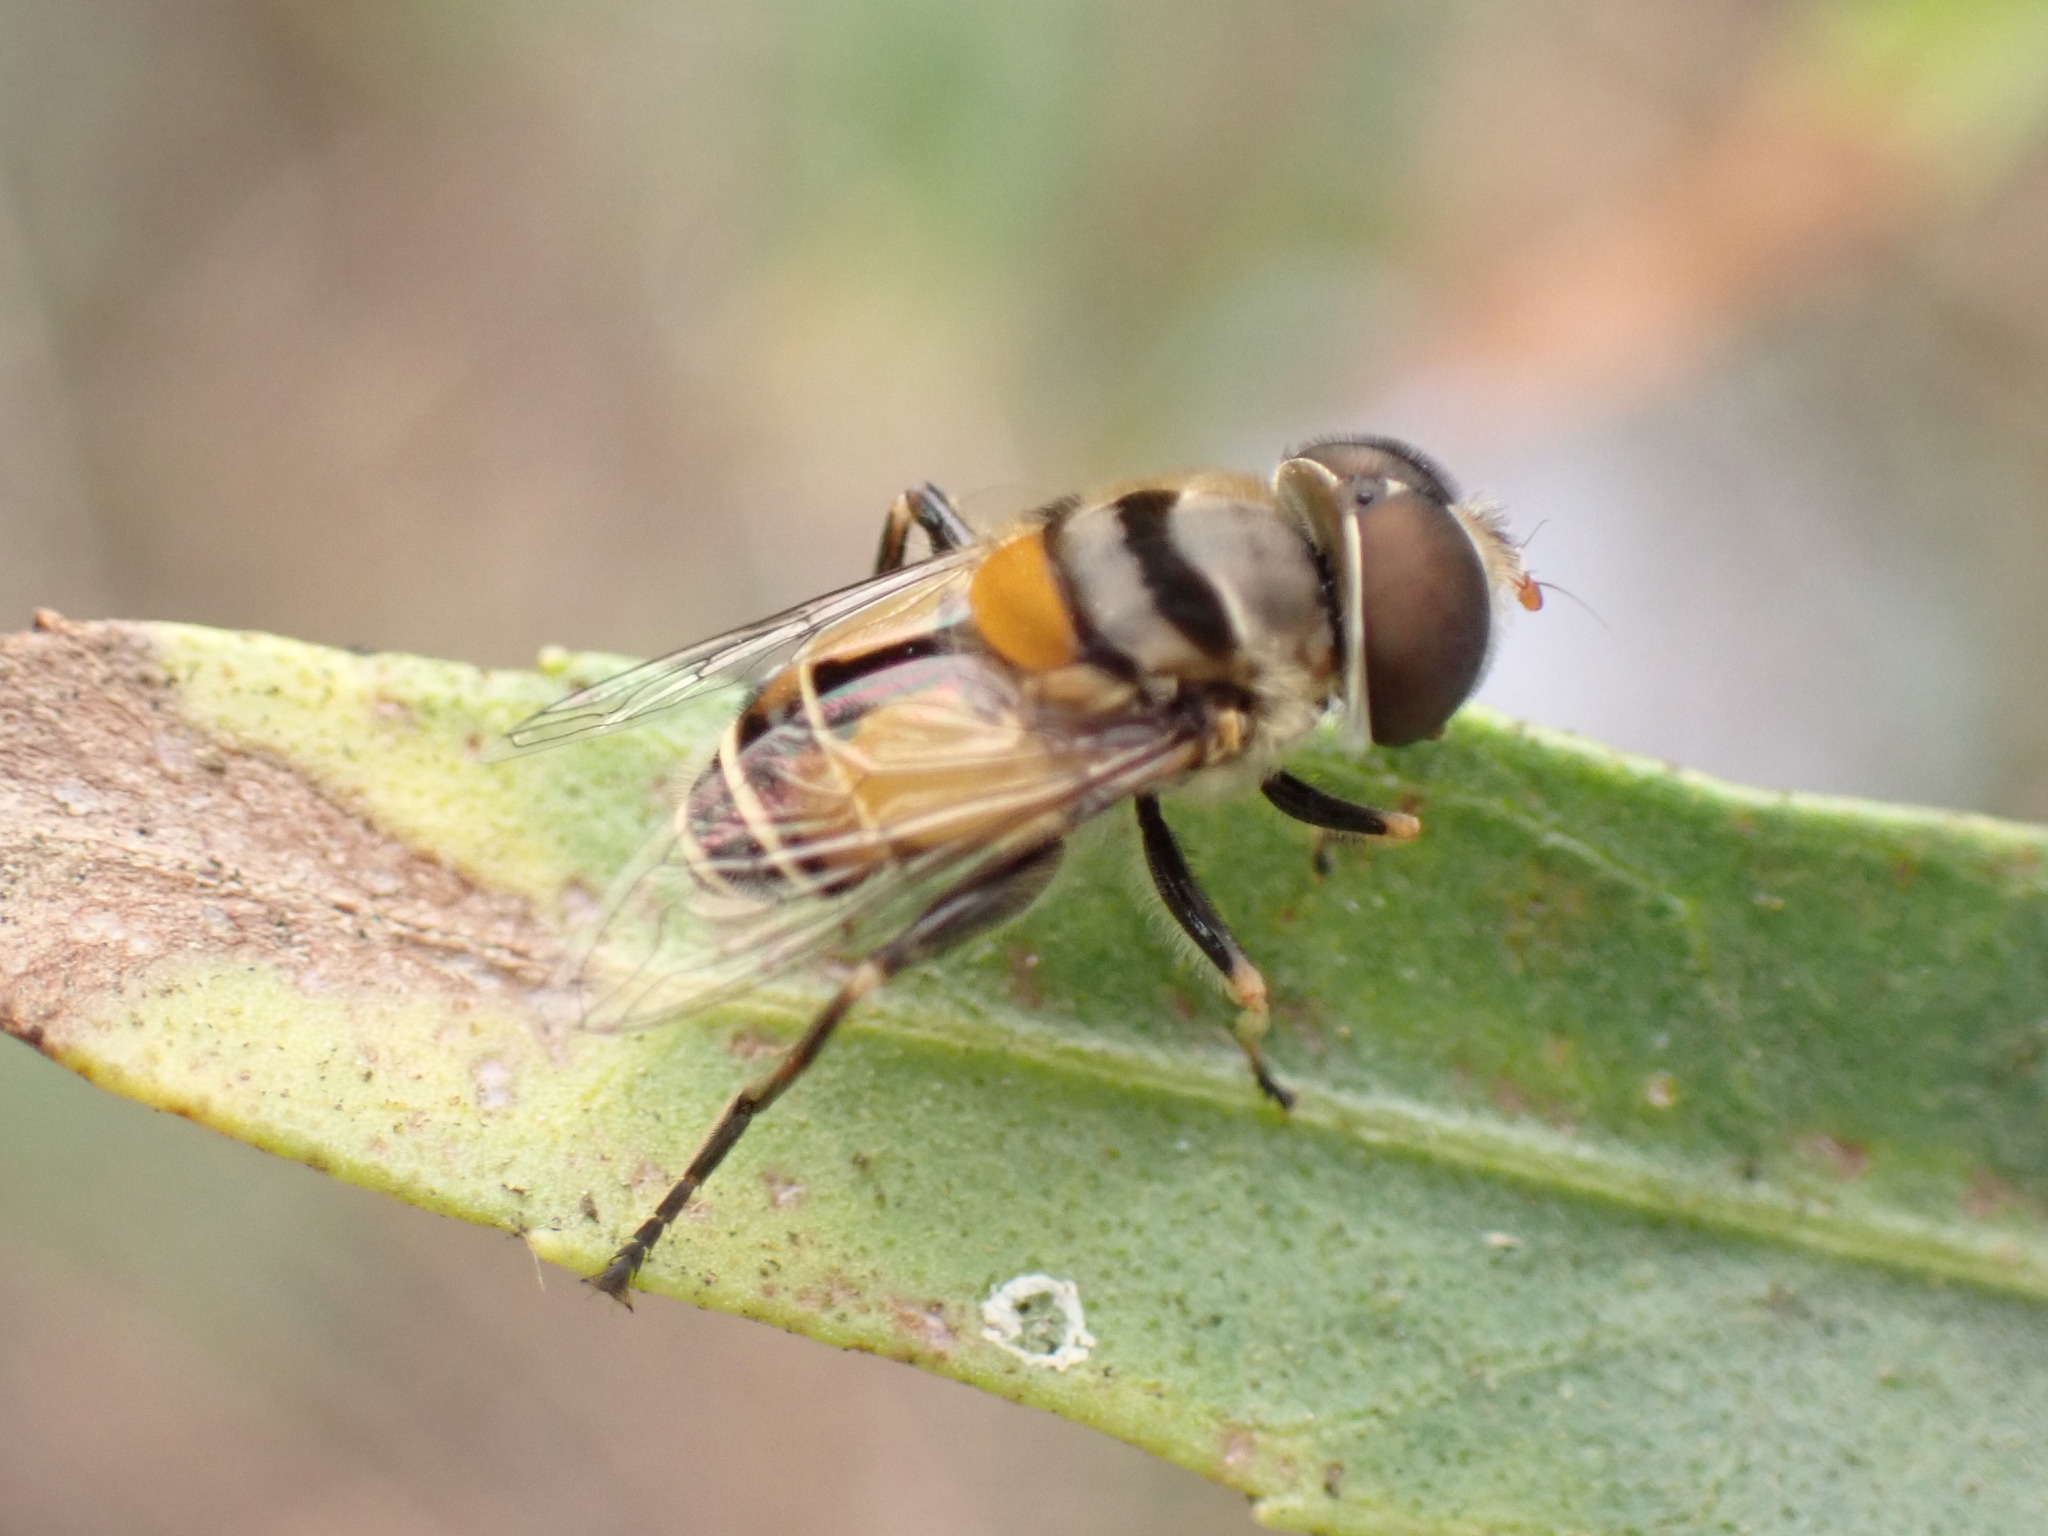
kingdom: Animalia
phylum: Arthropoda
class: Insecta
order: Diptera
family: Syrphidae
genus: Palpada
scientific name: Palpada alhambra
